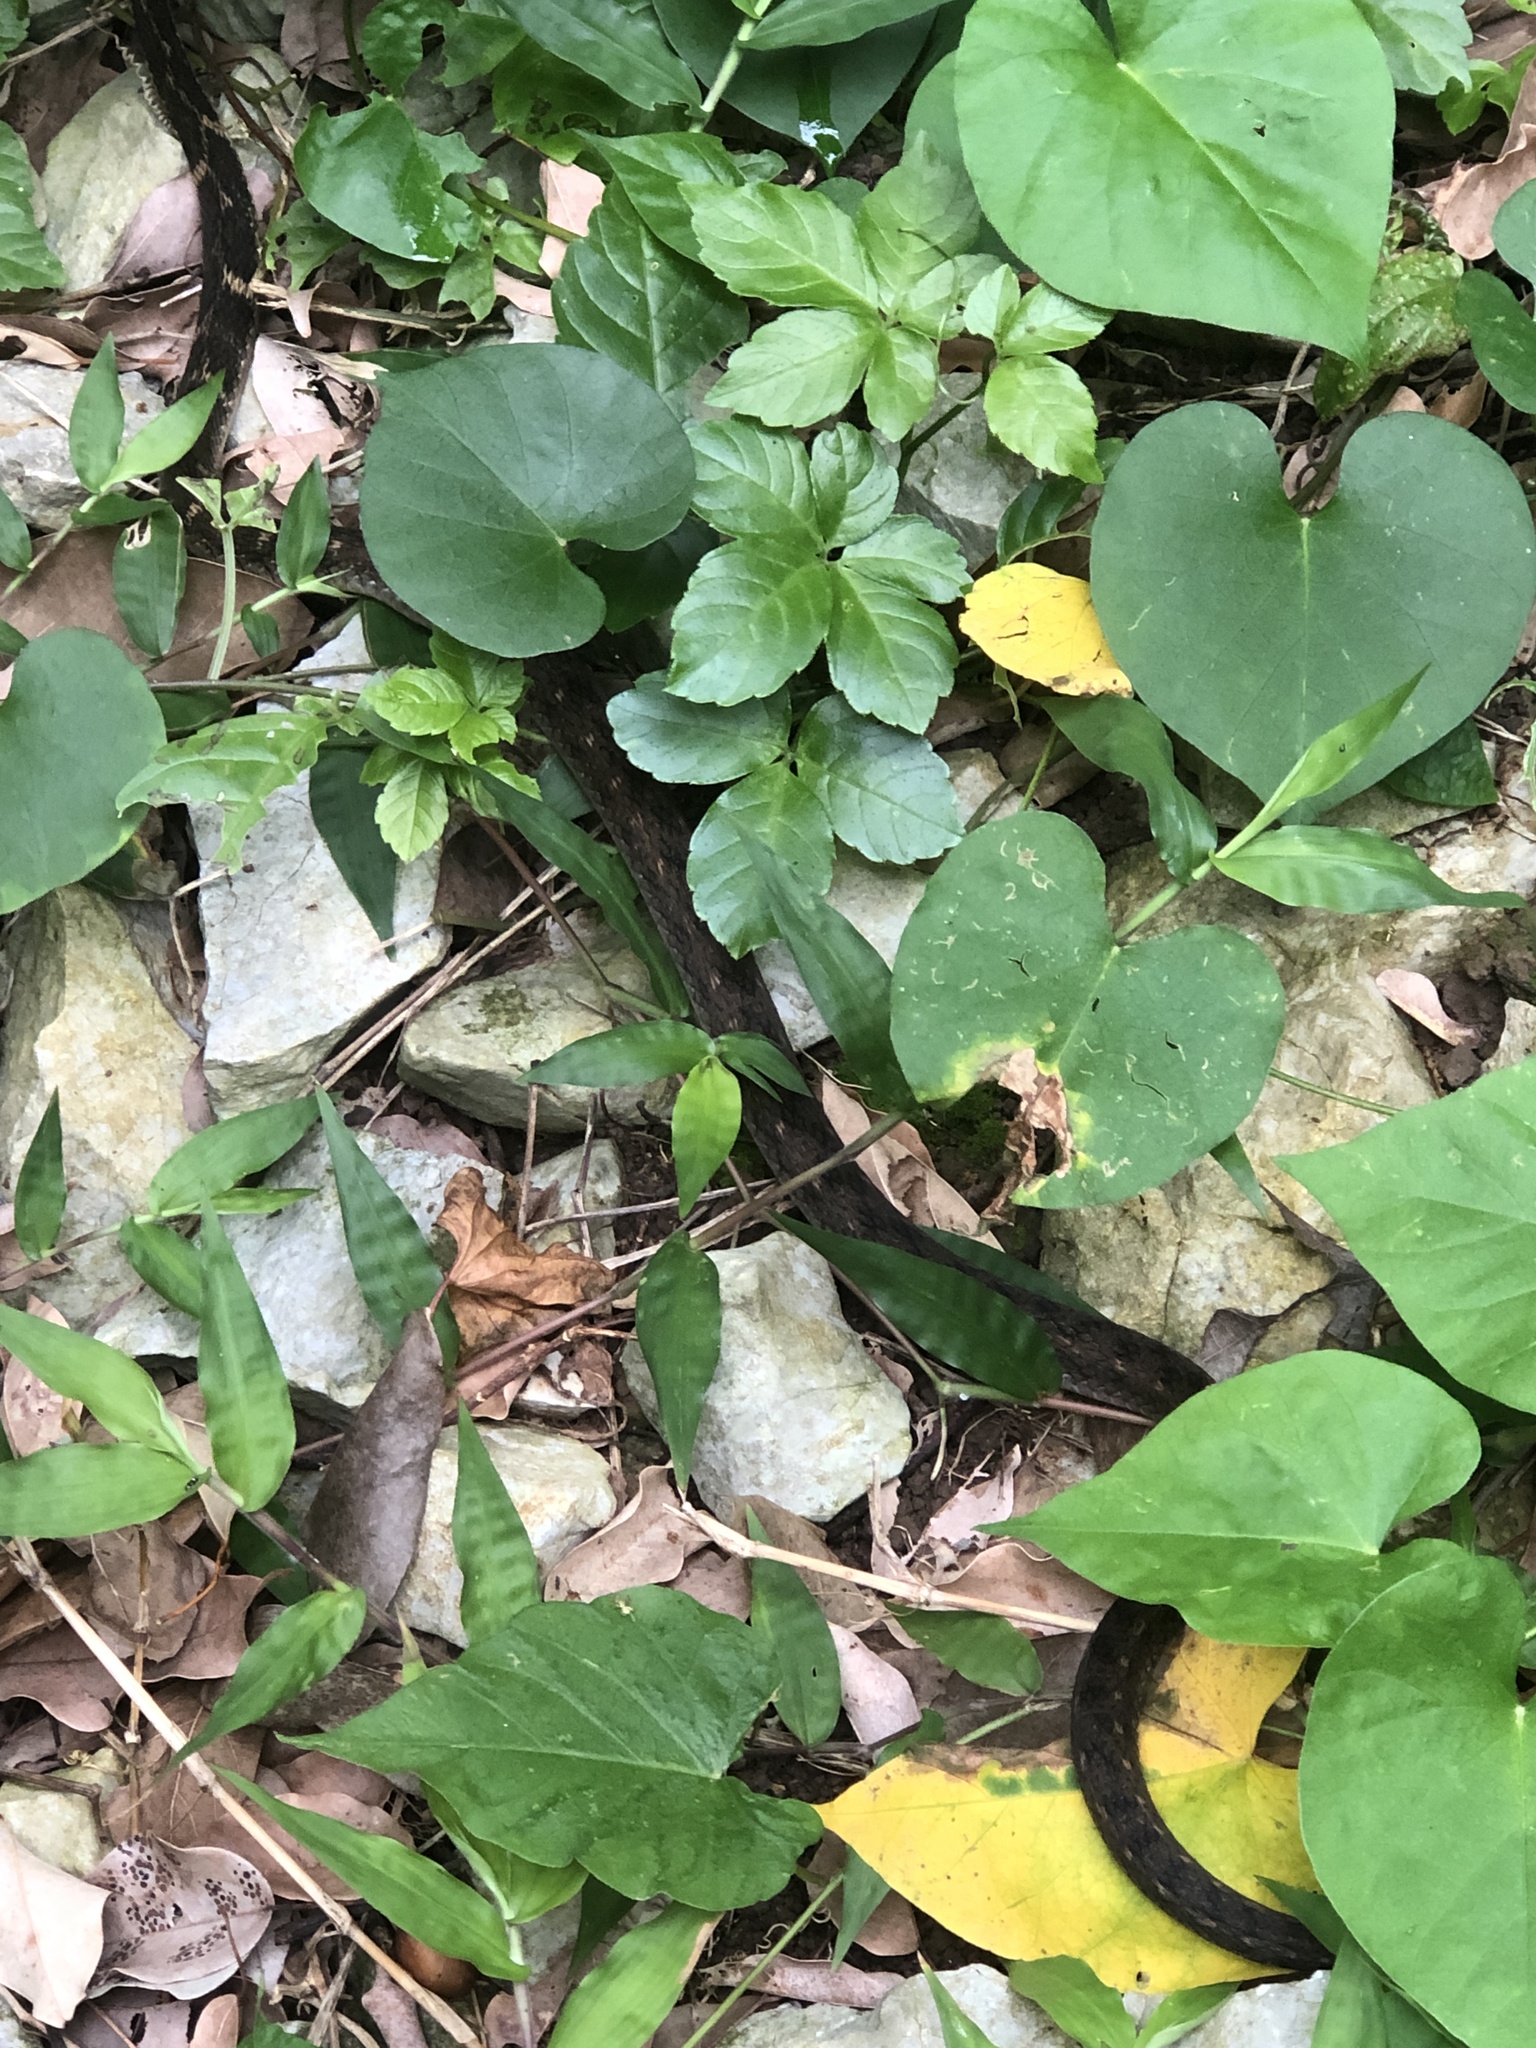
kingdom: Animalia
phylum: Chordata
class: Squamata
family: Colubridae
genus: Hebius
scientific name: Hebius pryeri
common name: Pryer's keelback
